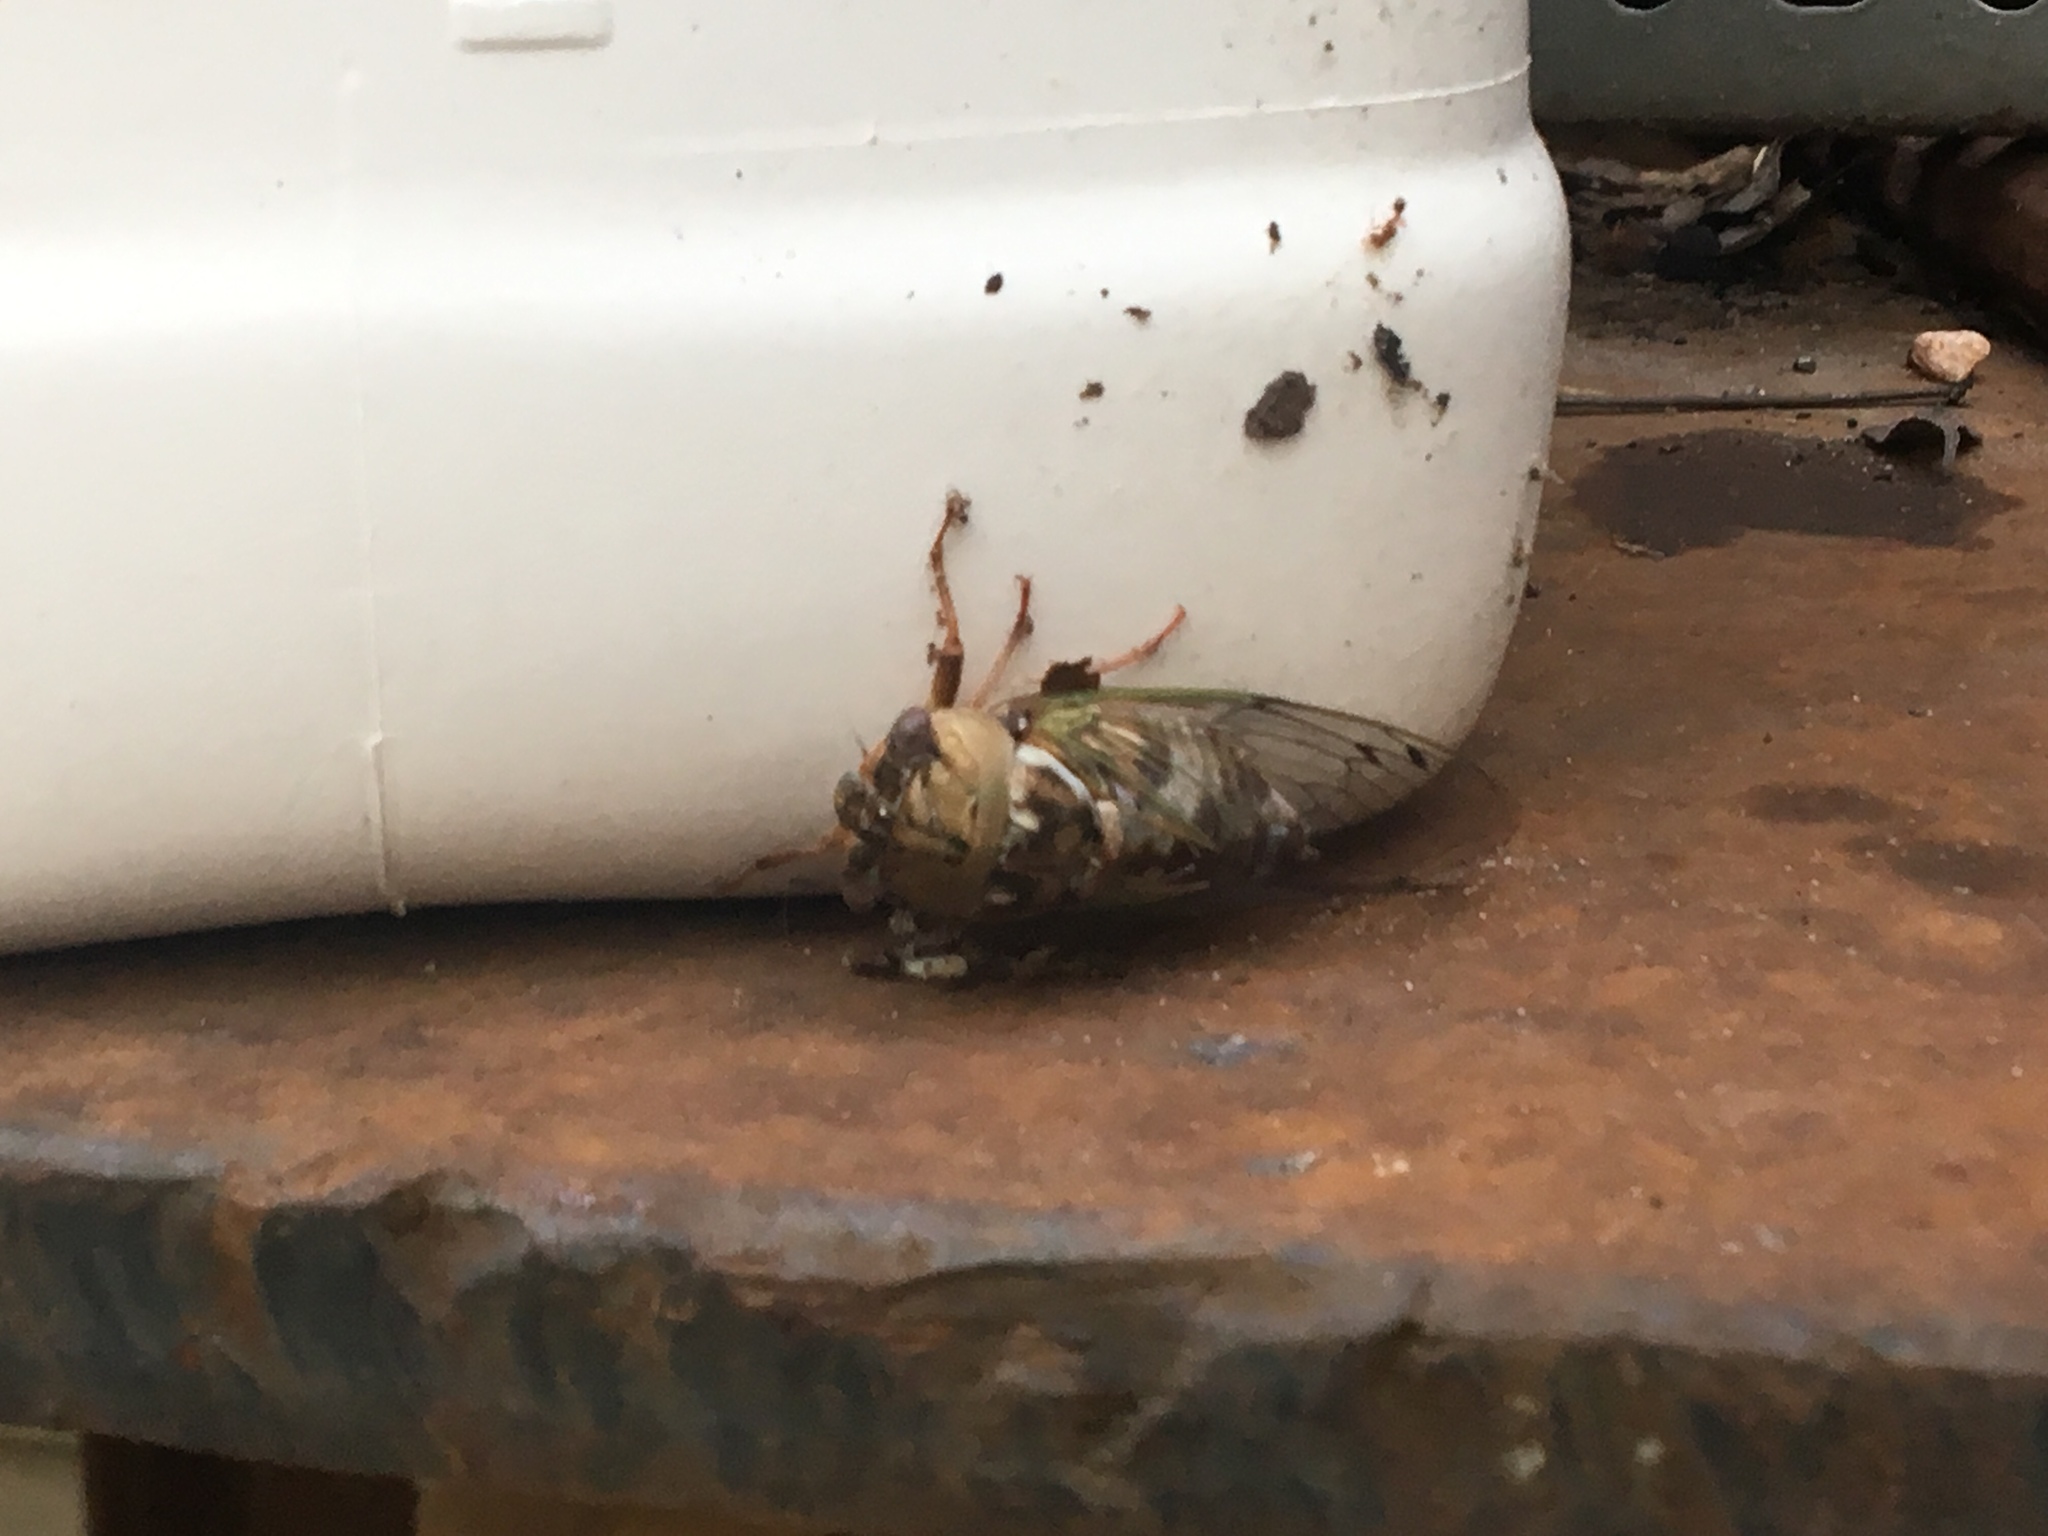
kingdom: Animalia
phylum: Arthropoda
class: Insecta
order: Hemiptera
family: Cicadidae
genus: Megatibicen
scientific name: Megatibicen resh
